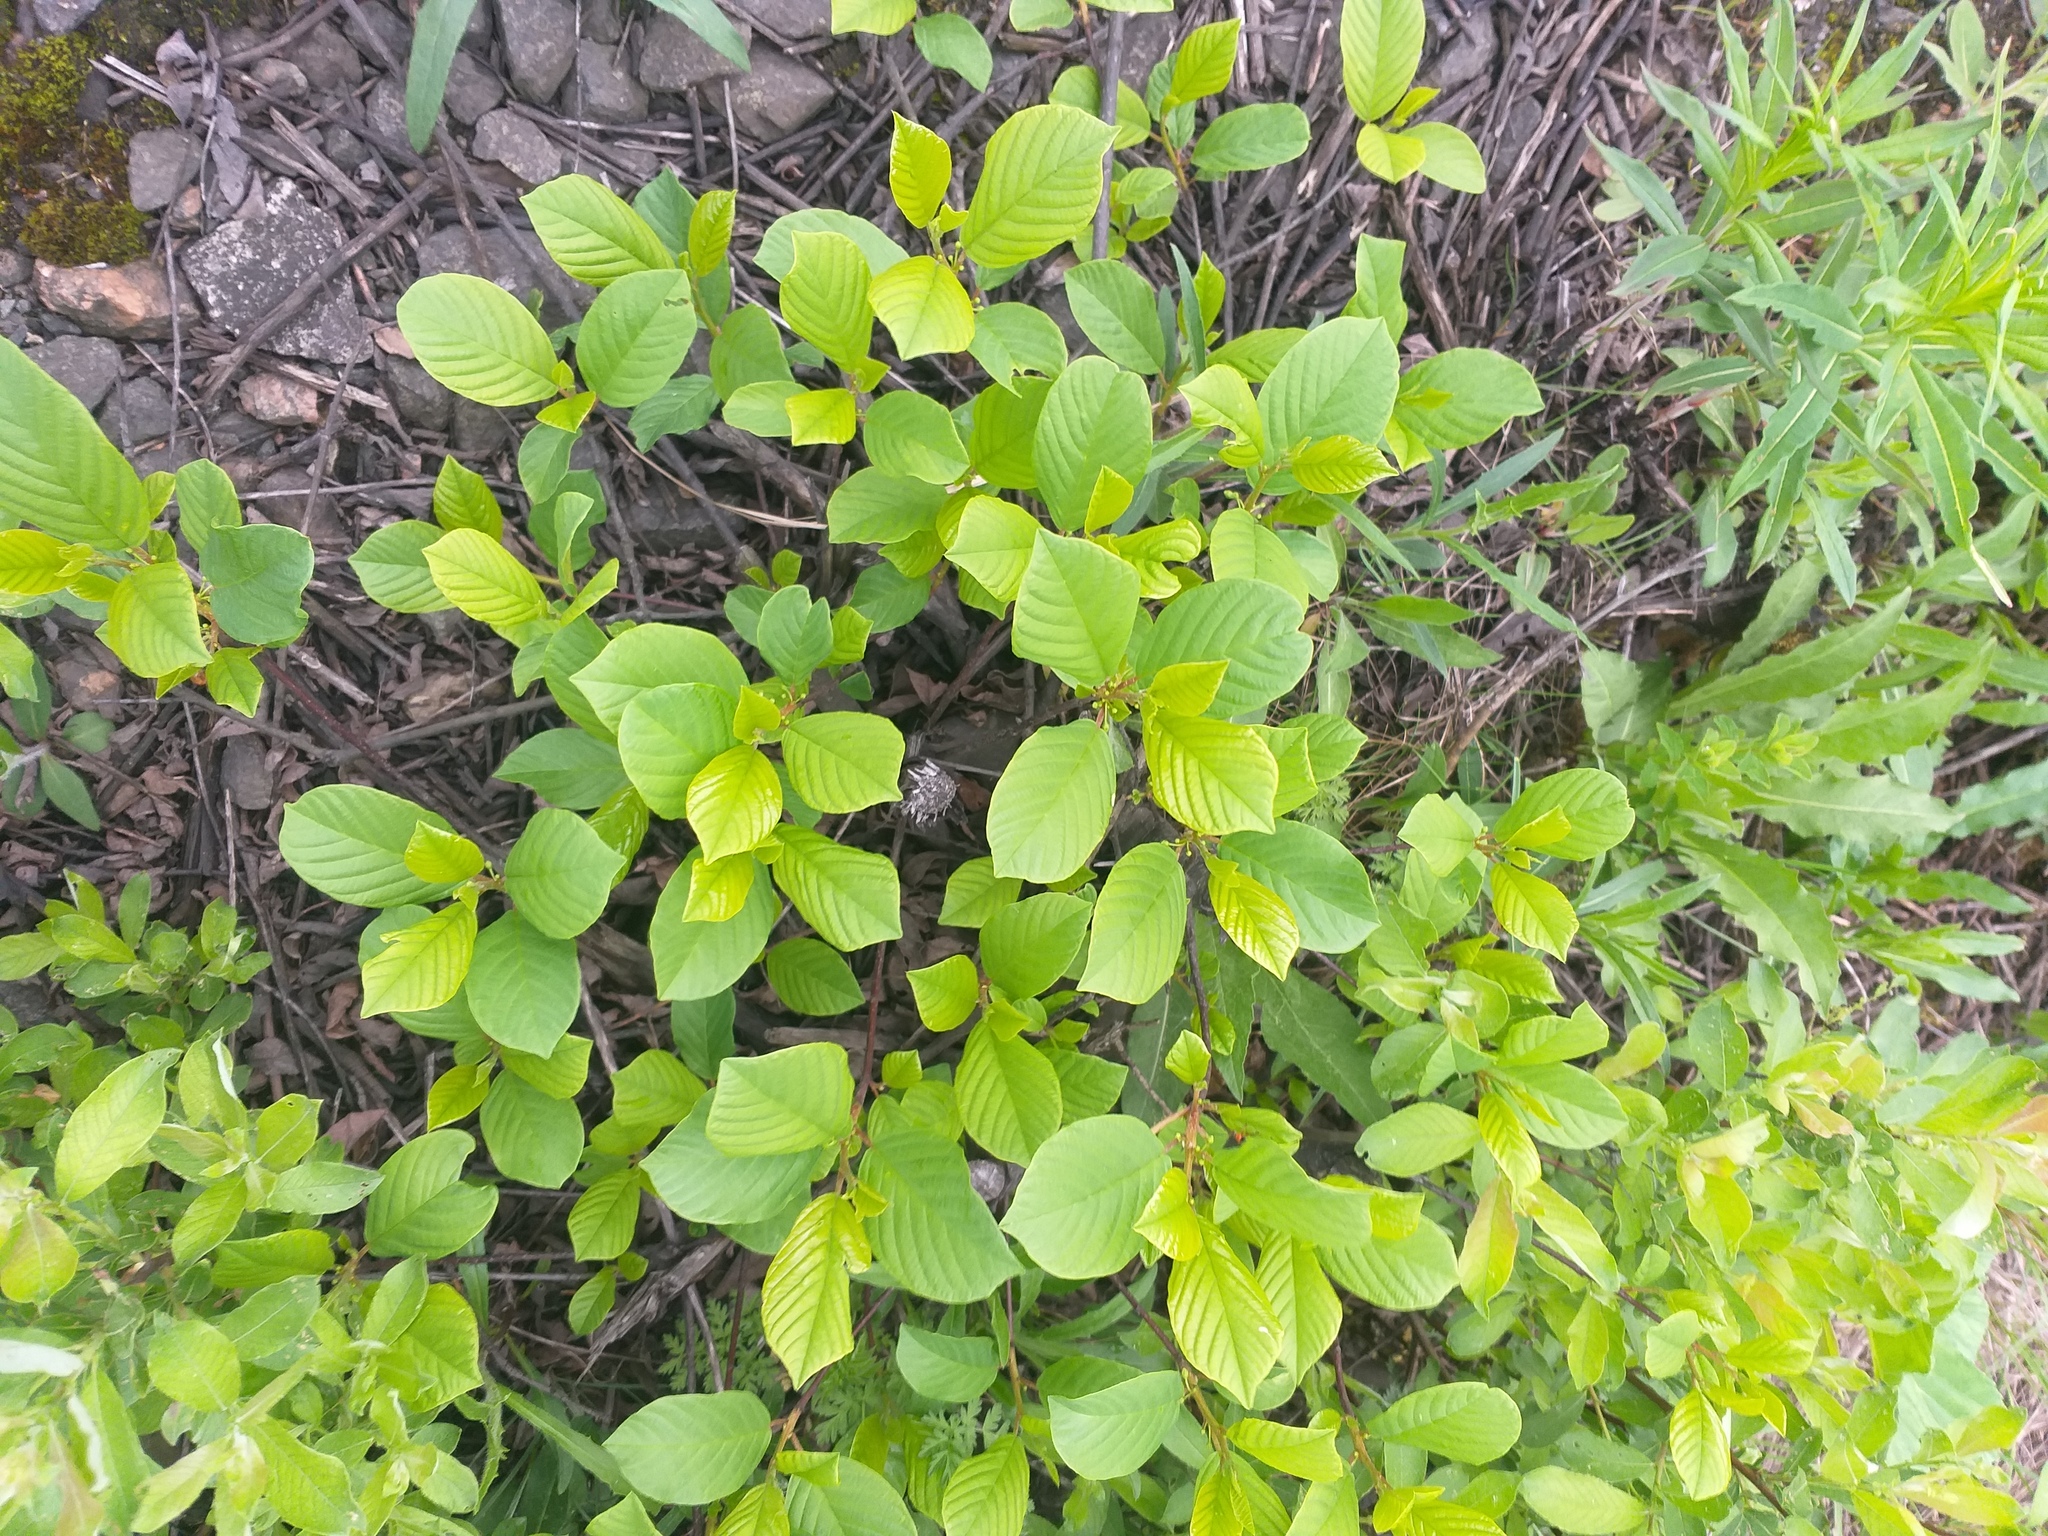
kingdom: Plantae
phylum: Tracheophyta
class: Magnoliopsida
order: Rosales
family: Rhamnaceae
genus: Frangula
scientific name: Frangula alnus
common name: Alder buckthorn
